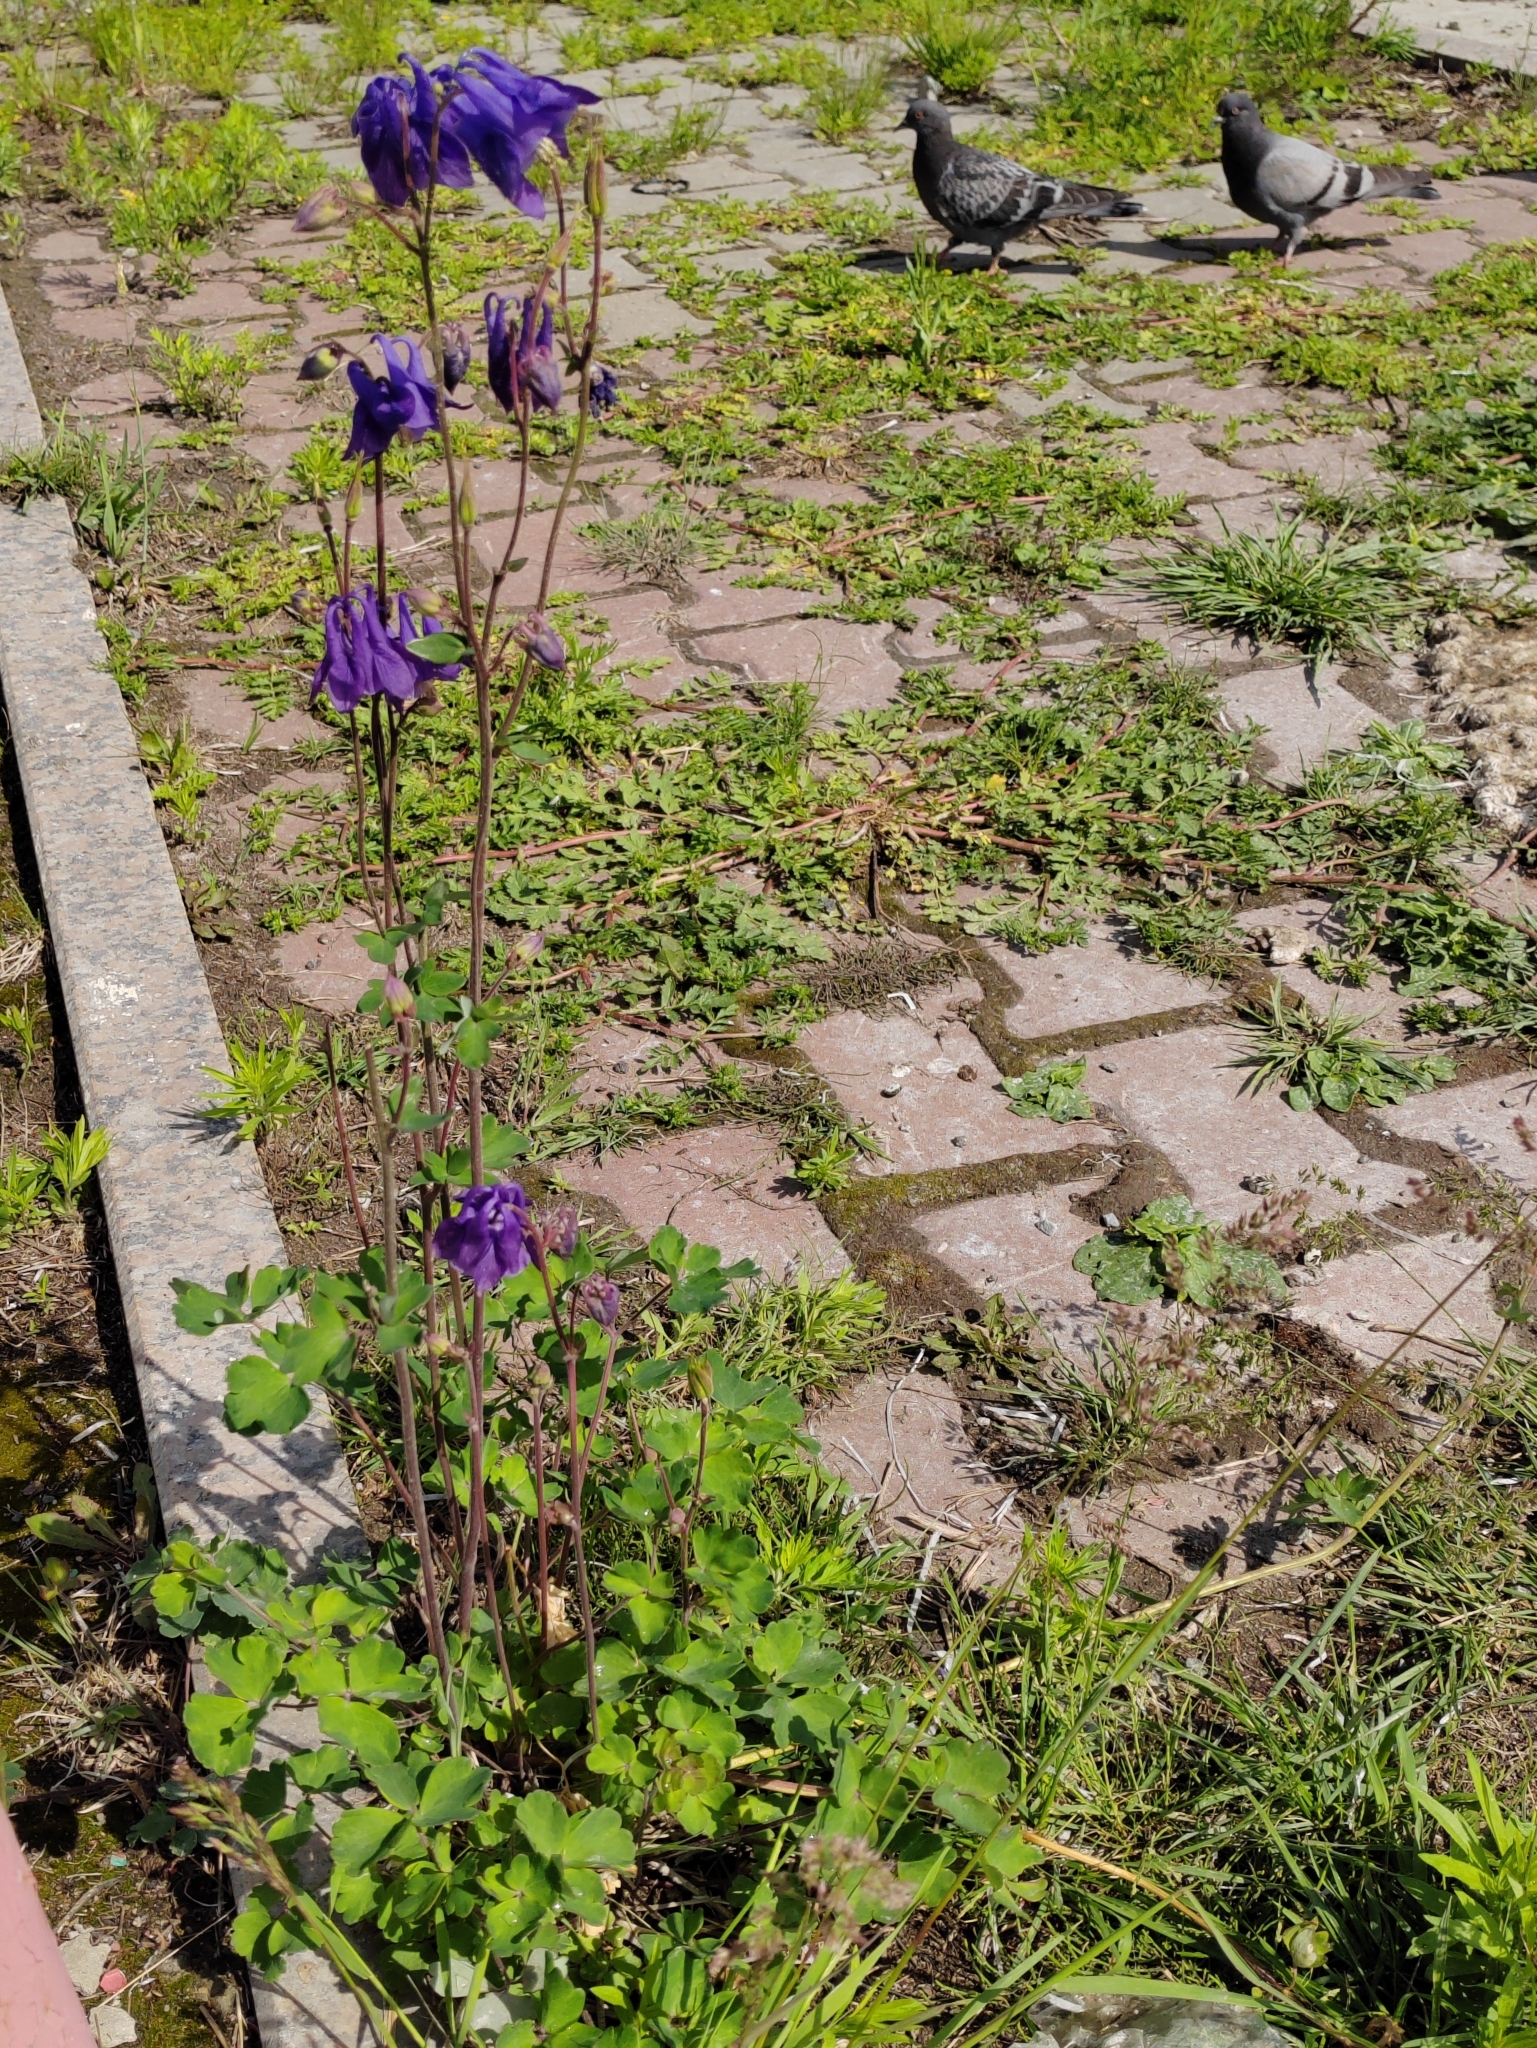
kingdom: Plantae
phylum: Tracheophyta
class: Magnoliopsida
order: Ranunculales
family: Ranunculaceae
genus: Aquilegia
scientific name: Aquilegia vulgaris
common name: Columbine
